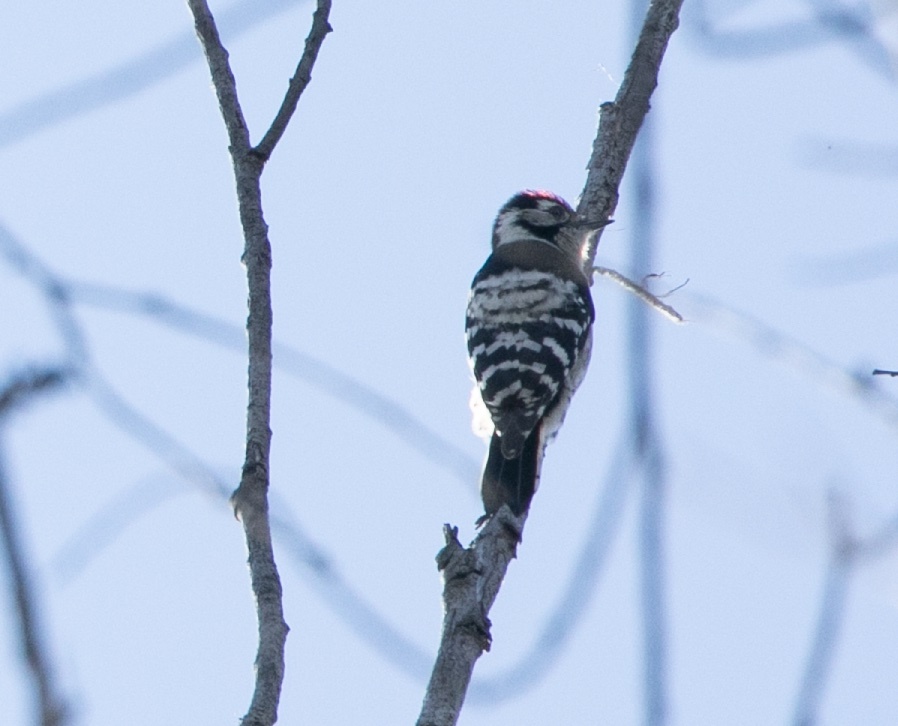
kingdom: Animalia
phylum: Chordata
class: Aves
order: Piciformes
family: Picidae
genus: Dryobates
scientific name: Dryobates minor
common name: Lesser spotted woodpecker
